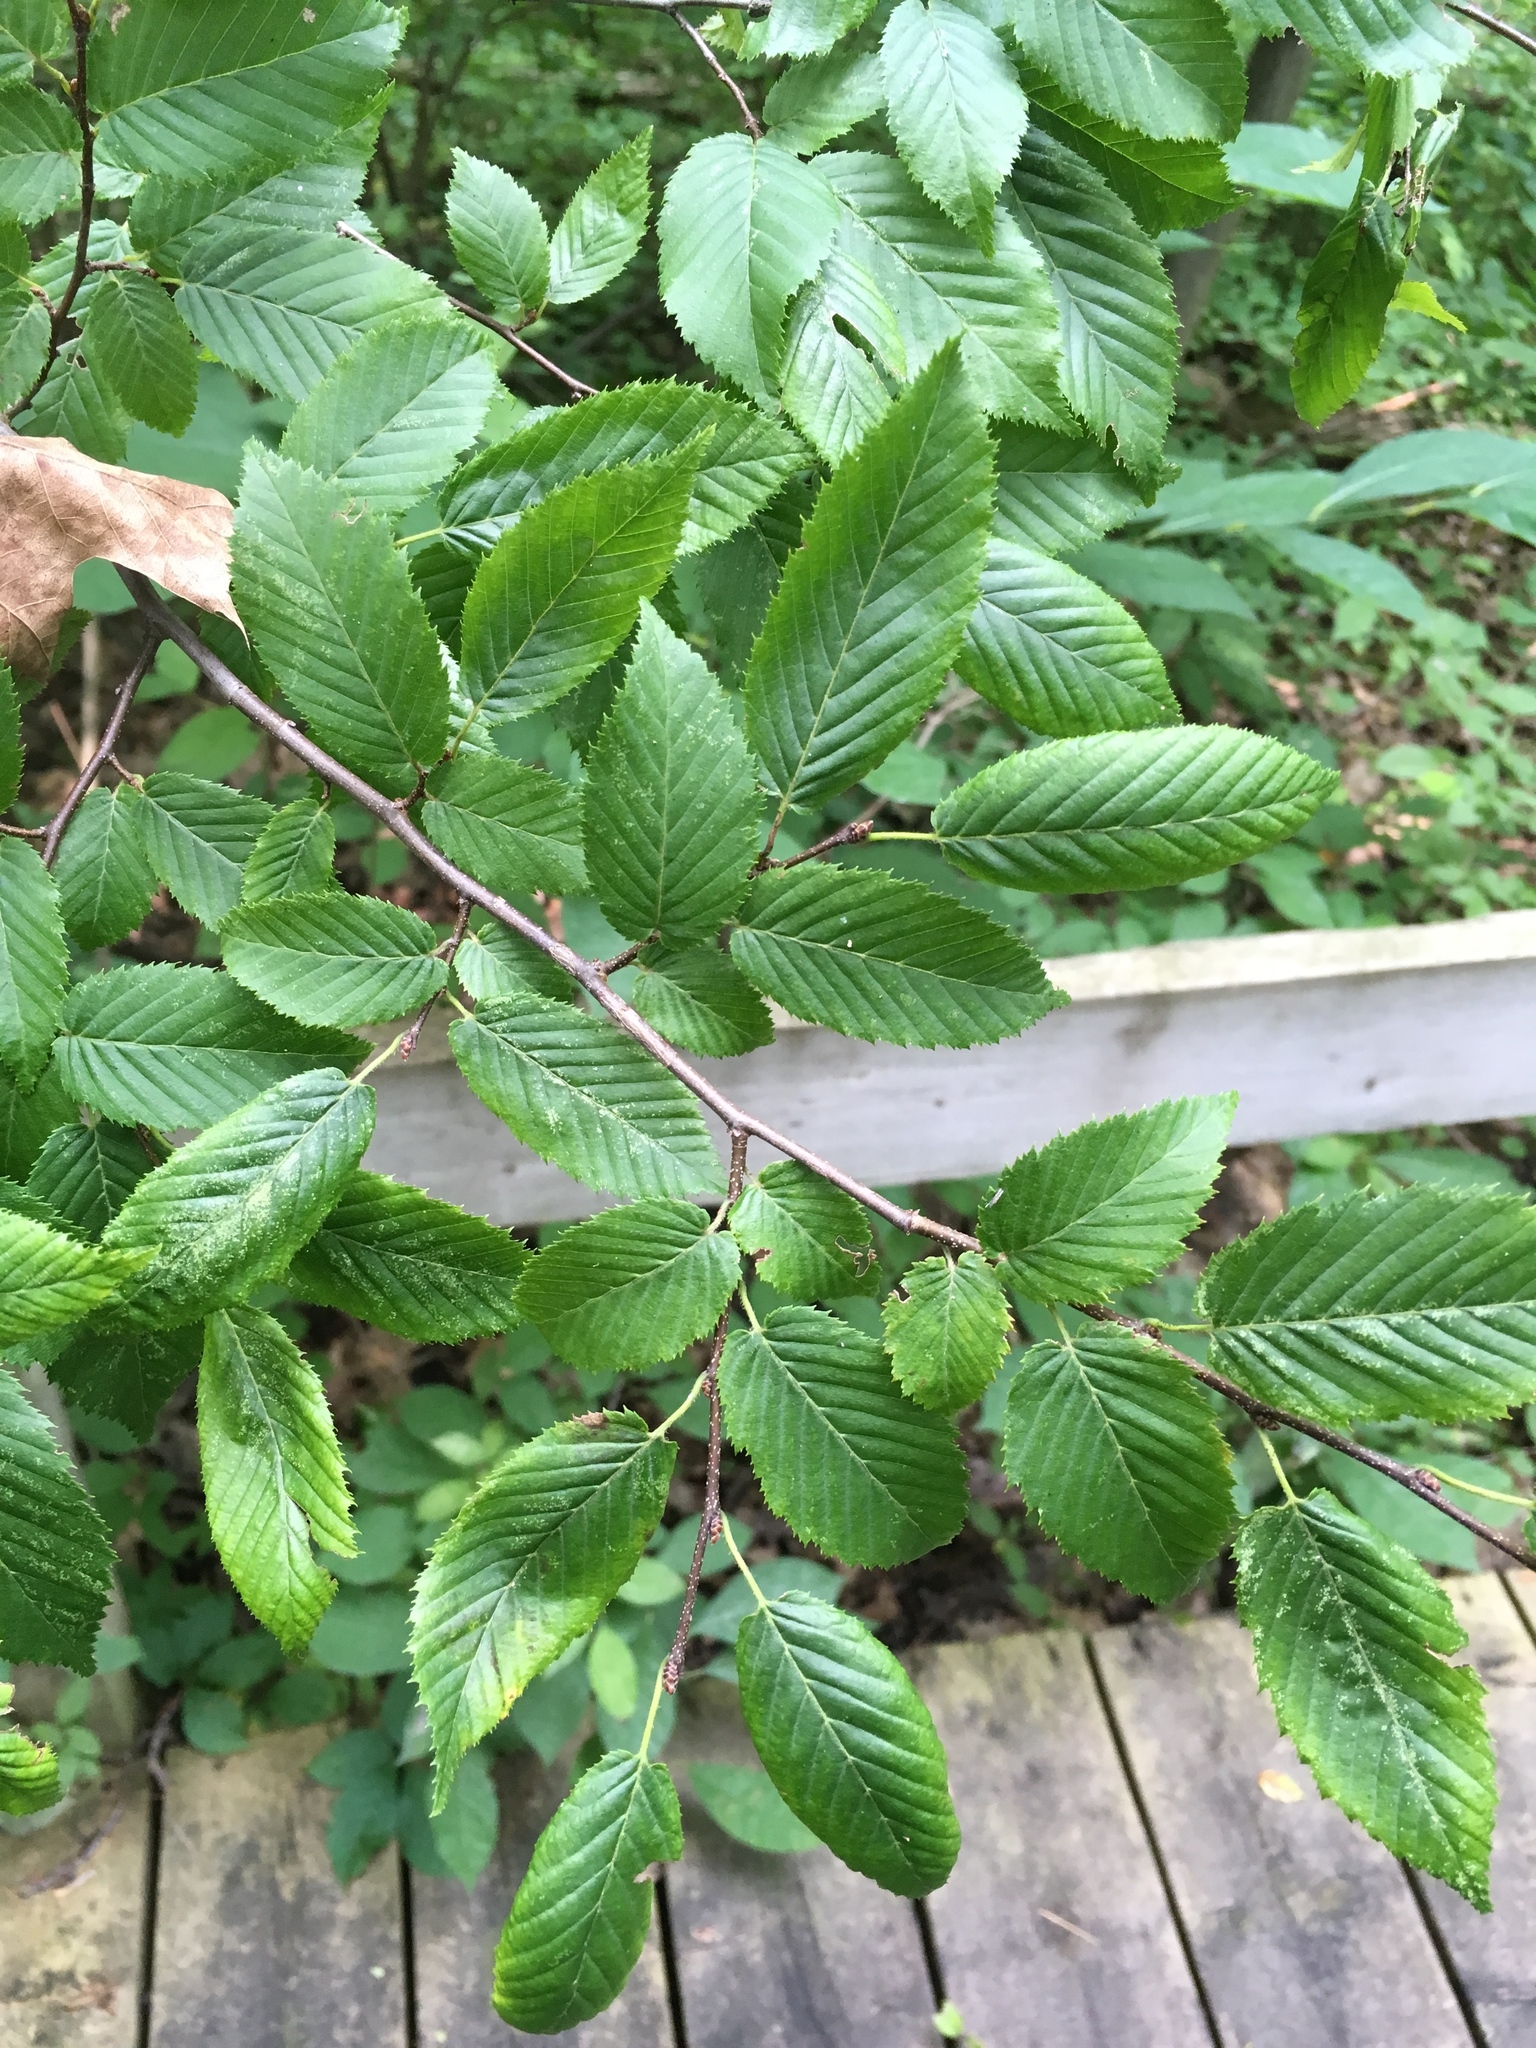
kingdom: Plantae
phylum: Tracheophyta
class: Magnoliopsida
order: Fagales
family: Betulaceae
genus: Carpinus
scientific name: Carpinus caroliniana
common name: American hornbeam
